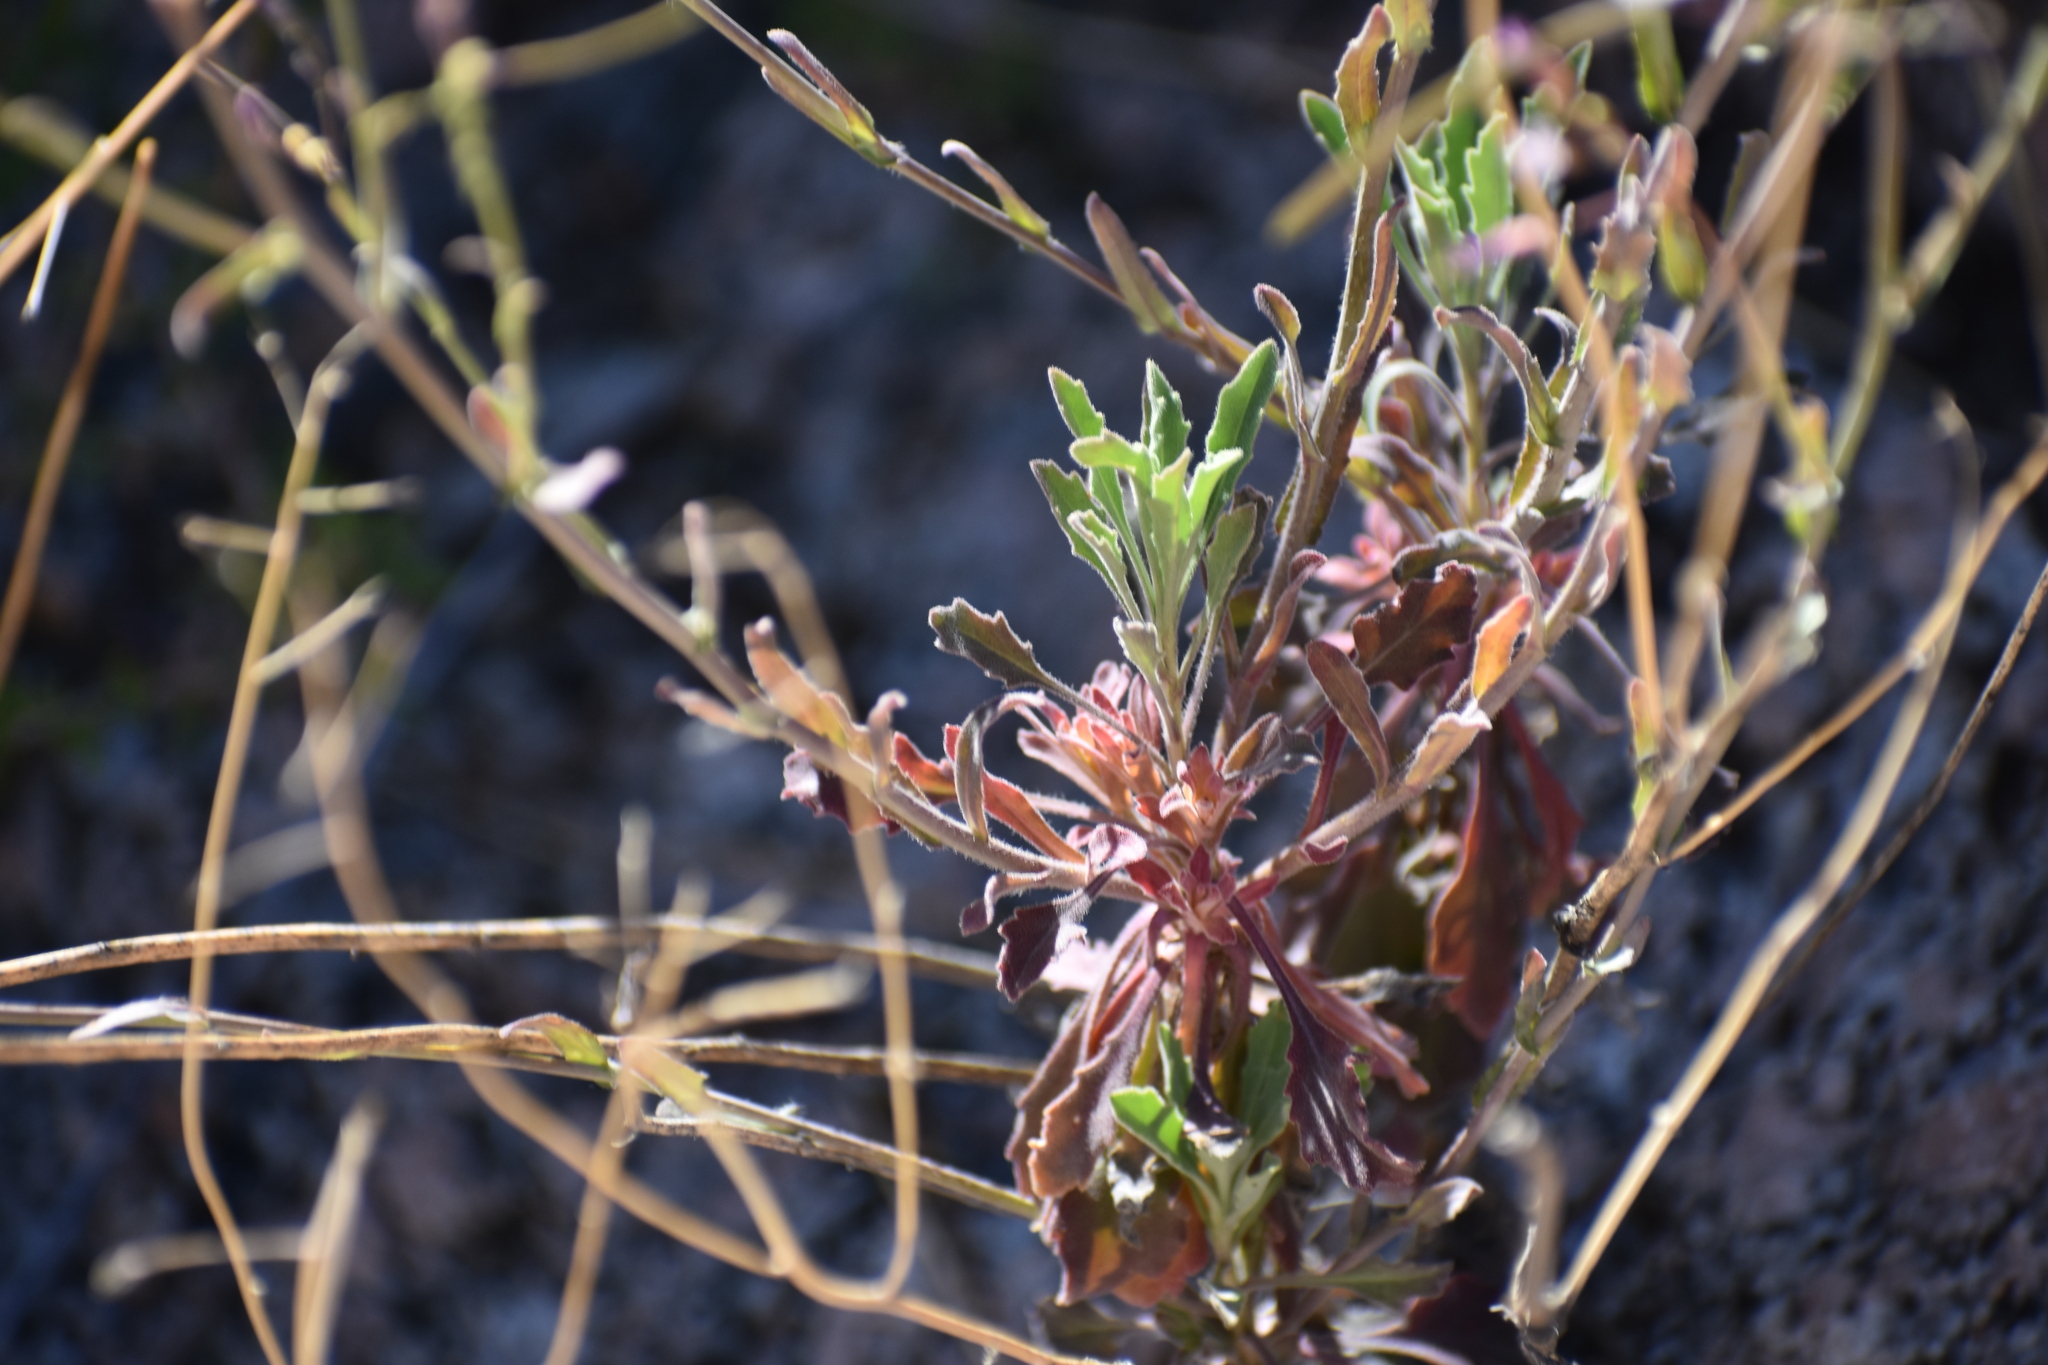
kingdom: Plantae
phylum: Tracheophyta
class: Magnoliopsida
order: Brassicales
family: Brassicaceae
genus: Boechera
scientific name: Boechera perennans
